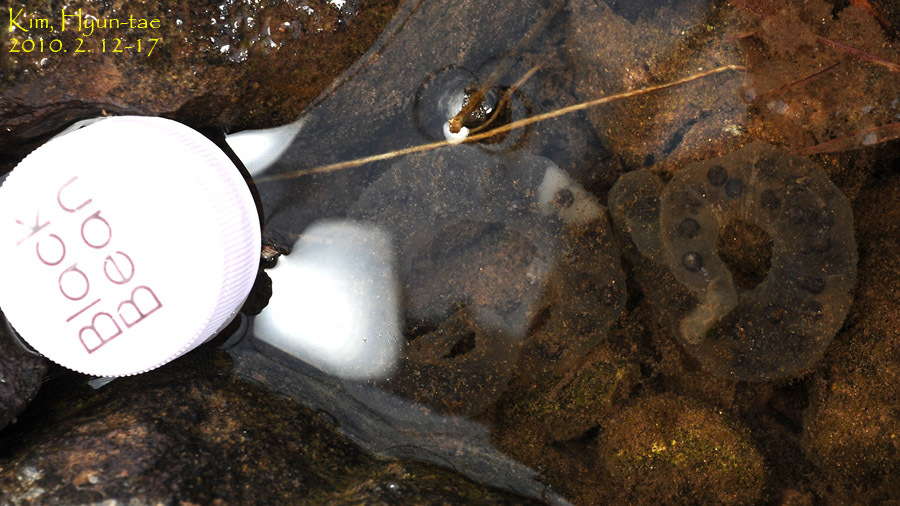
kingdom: Animalia
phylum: Chordata
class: Amphibia
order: Caudata
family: Hynobiidae
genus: Hynobius
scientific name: Hynobius unisacculus
